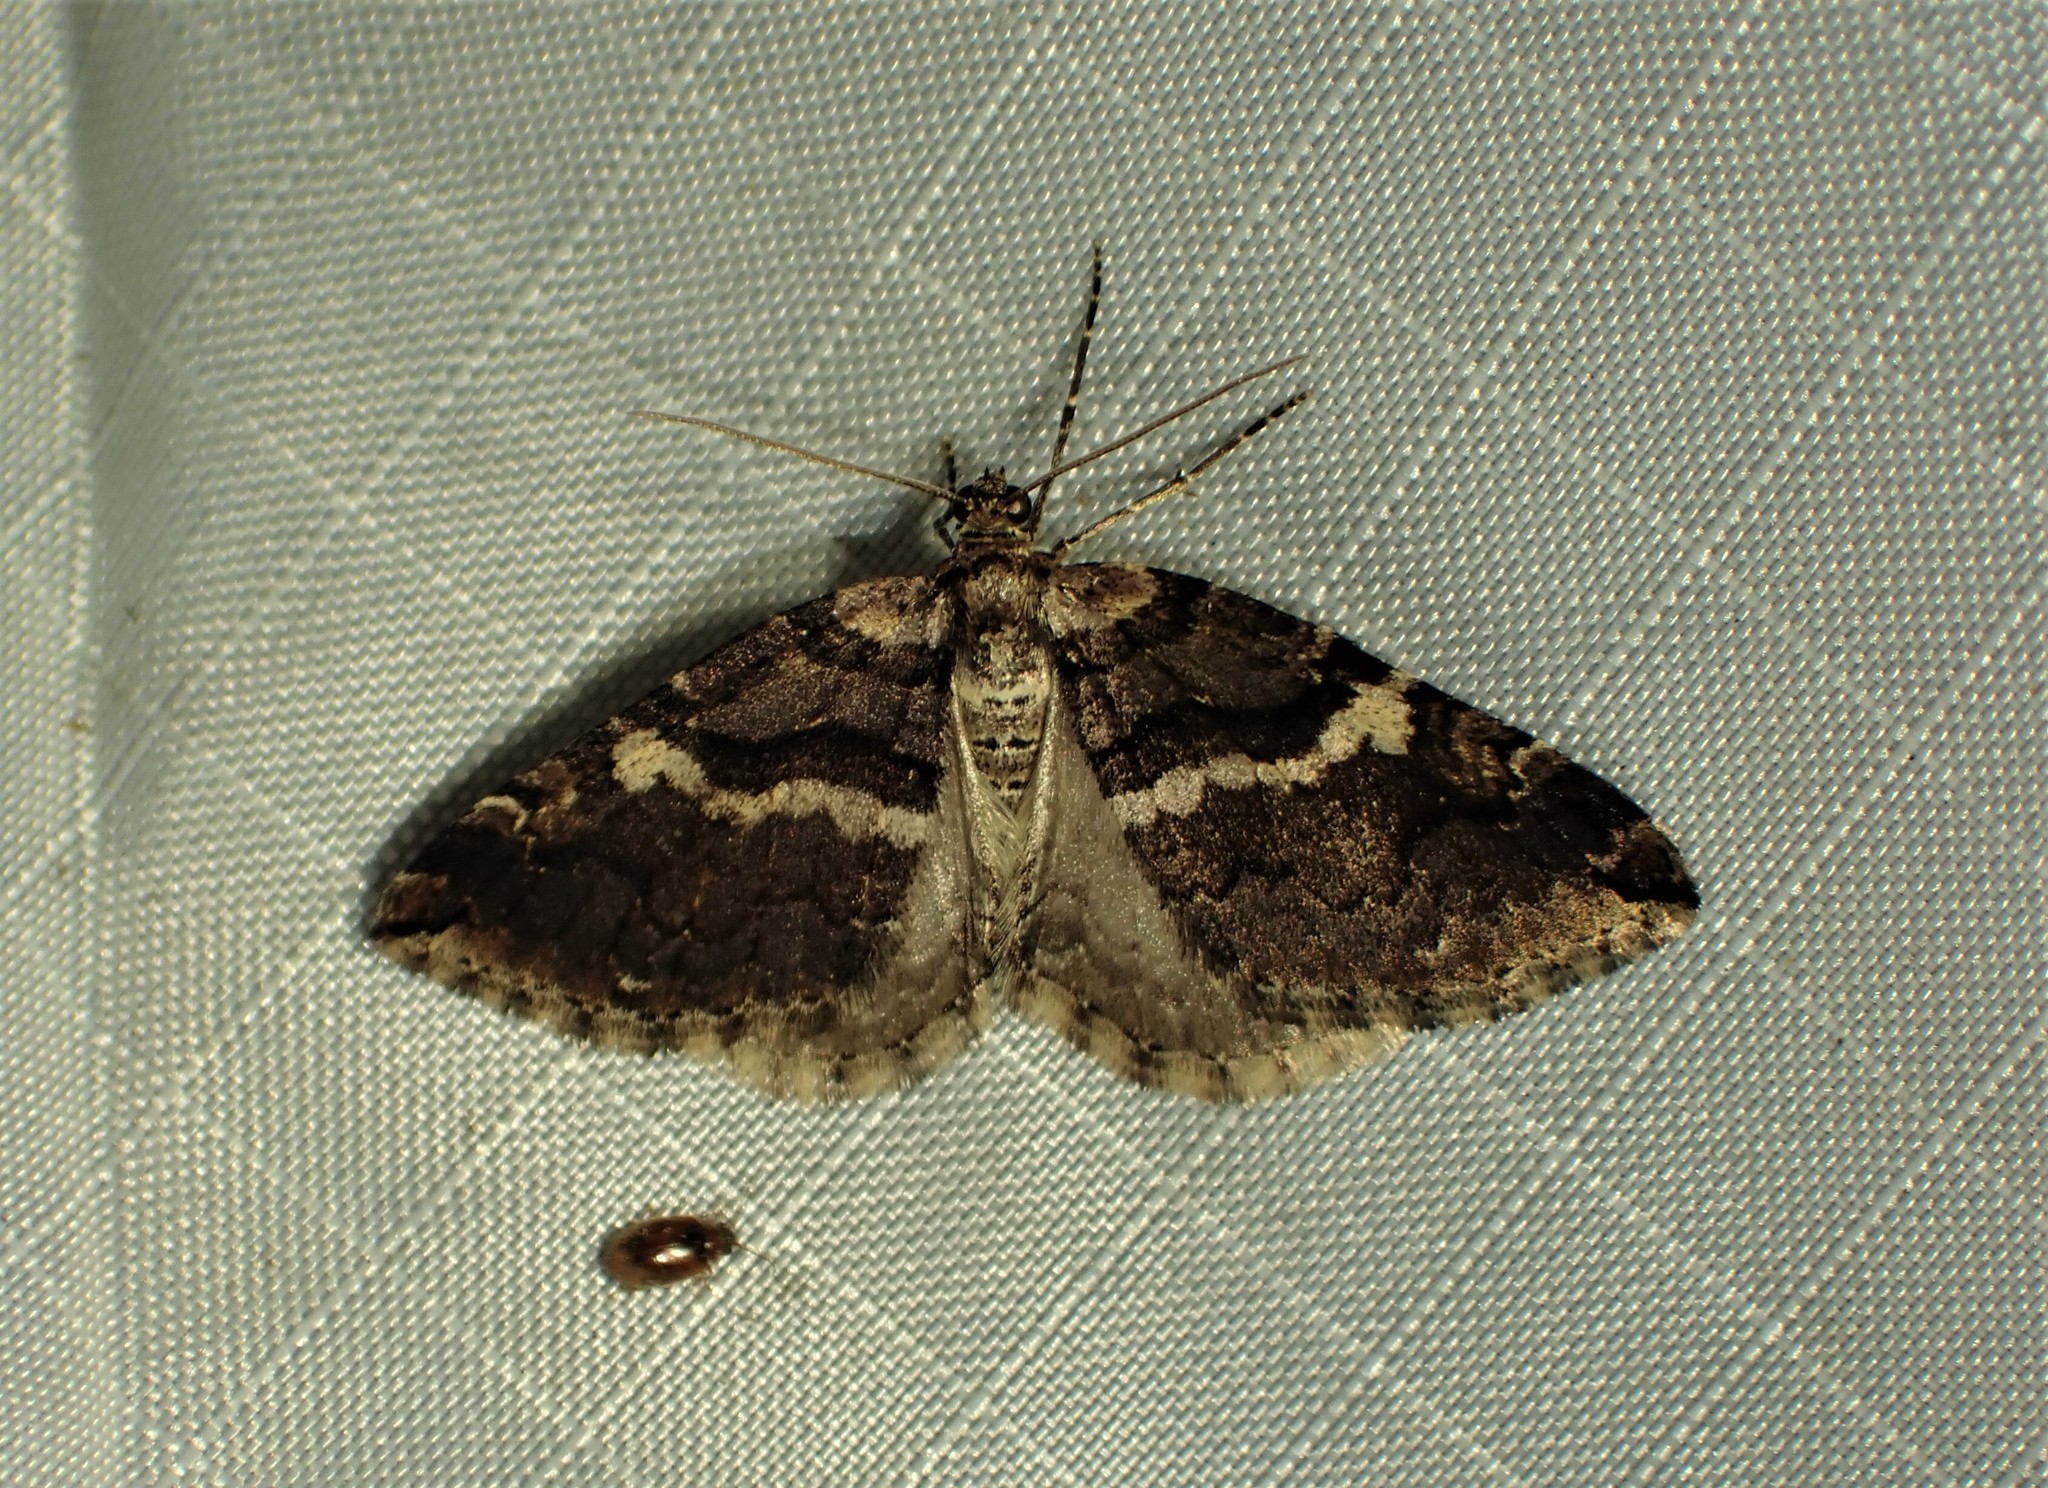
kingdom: Animalia
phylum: Arthropoda
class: Insecta
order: Lepidoptera
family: Geometridae
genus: Anticlea
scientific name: Anticlea vasiliata
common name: Variable carpet
